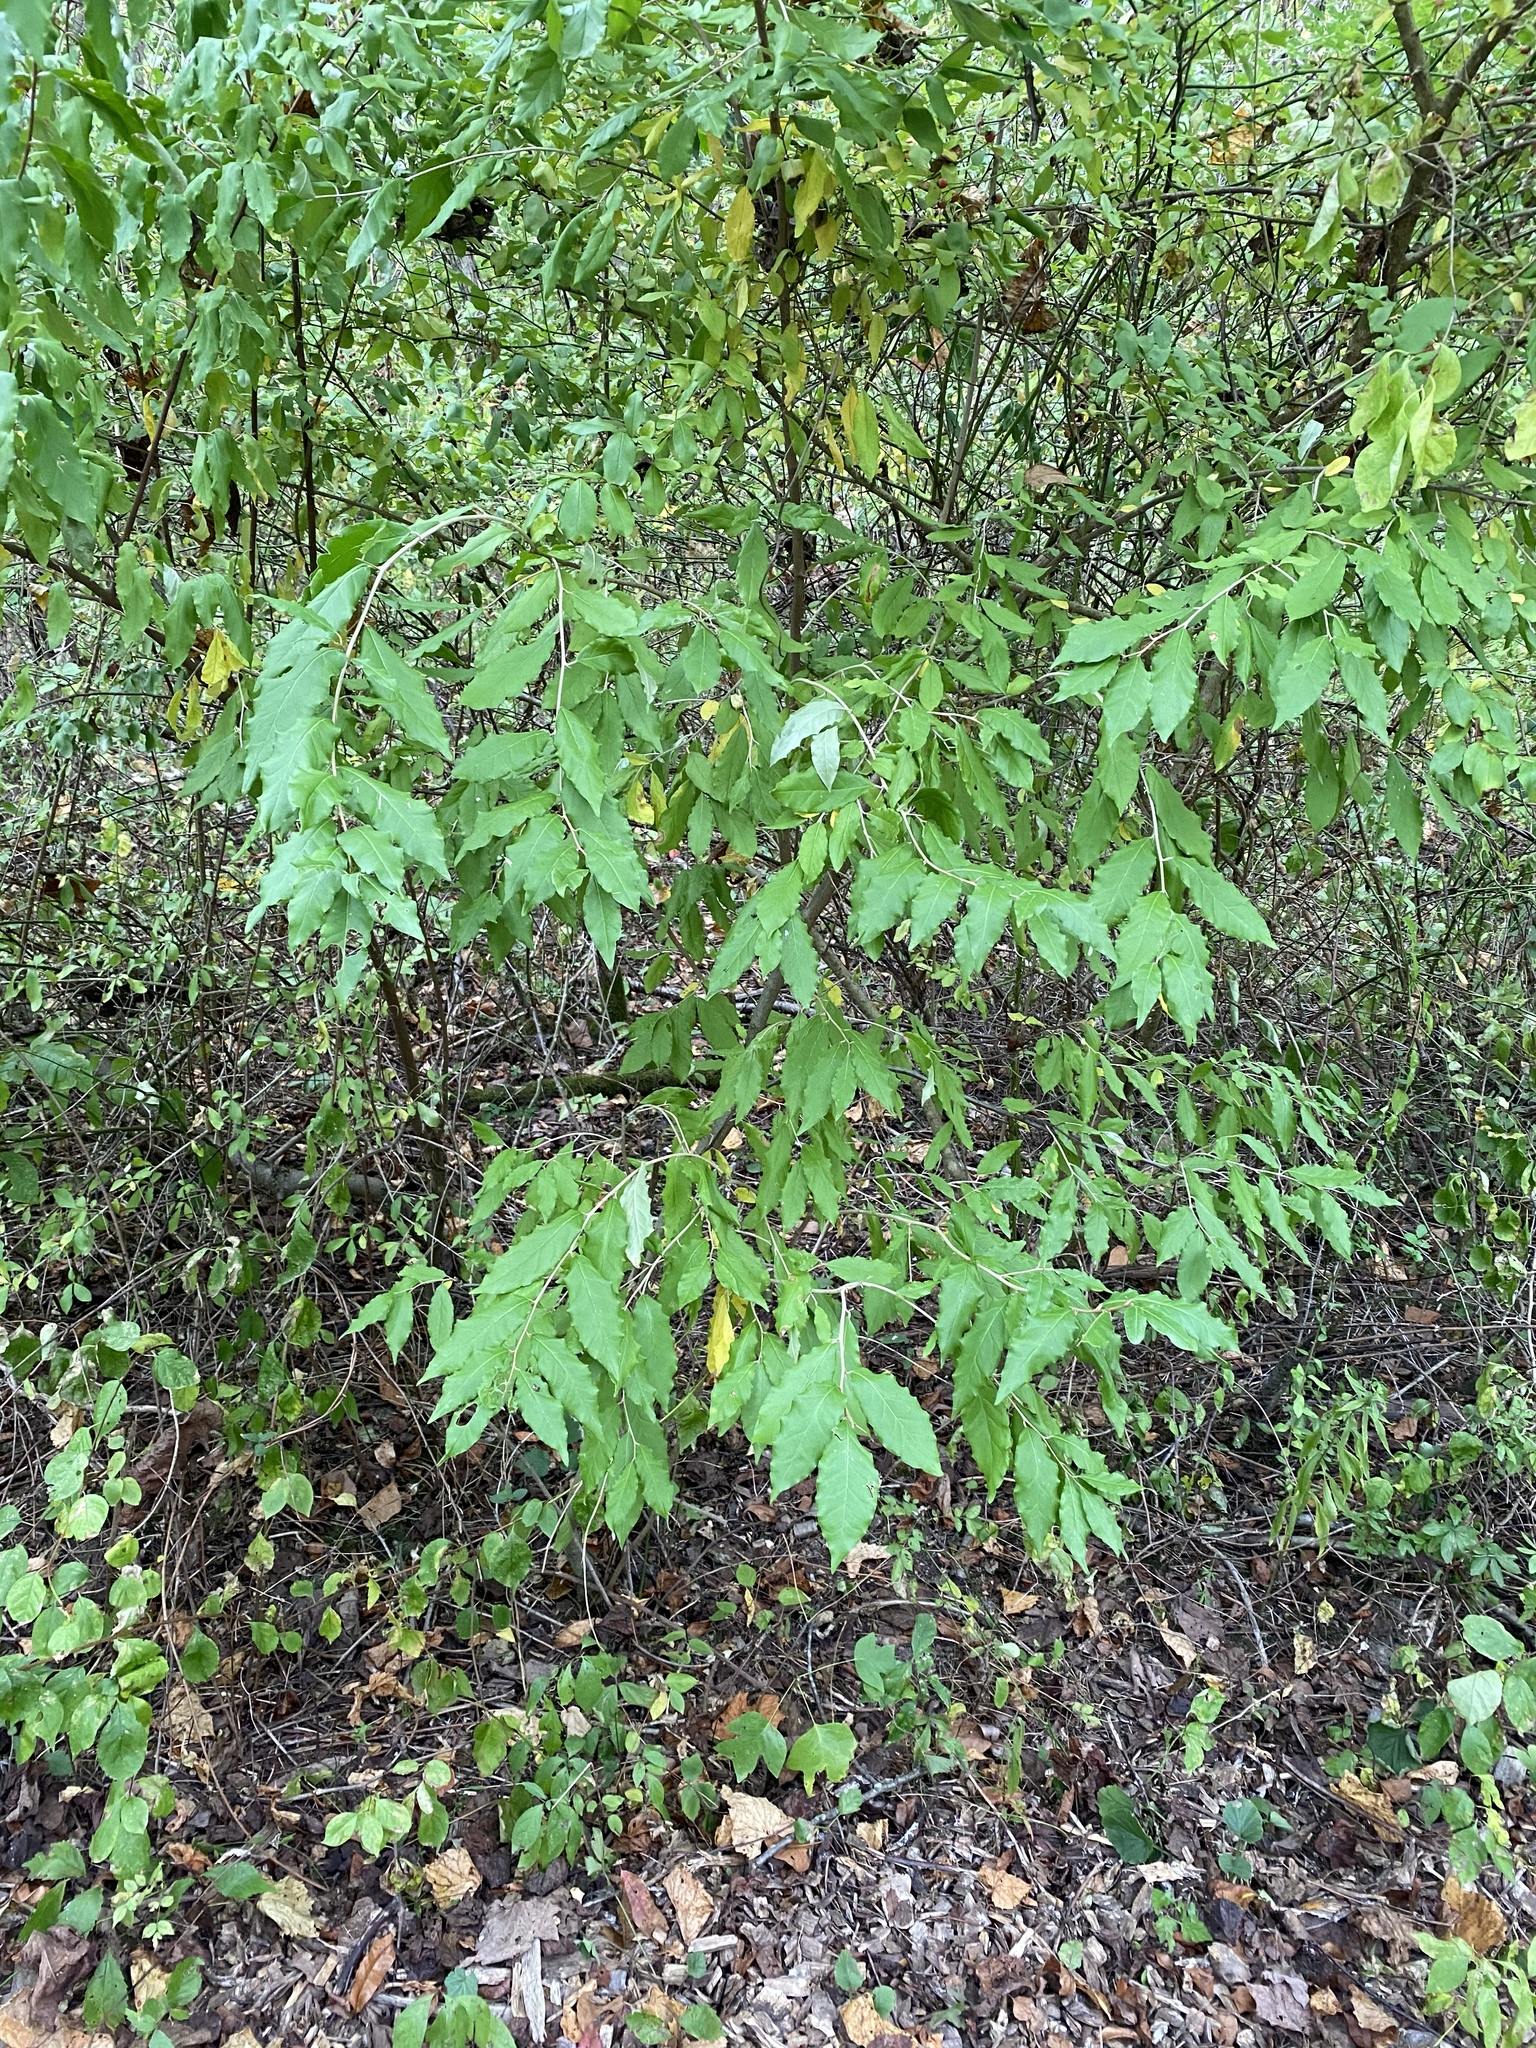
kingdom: Plantae
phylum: Tracheophyta
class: Magnoliopsida
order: Rosales
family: Elaeagnaceae
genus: Elaeagnus
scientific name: Elaeagnus umbellata
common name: Autumn olive
